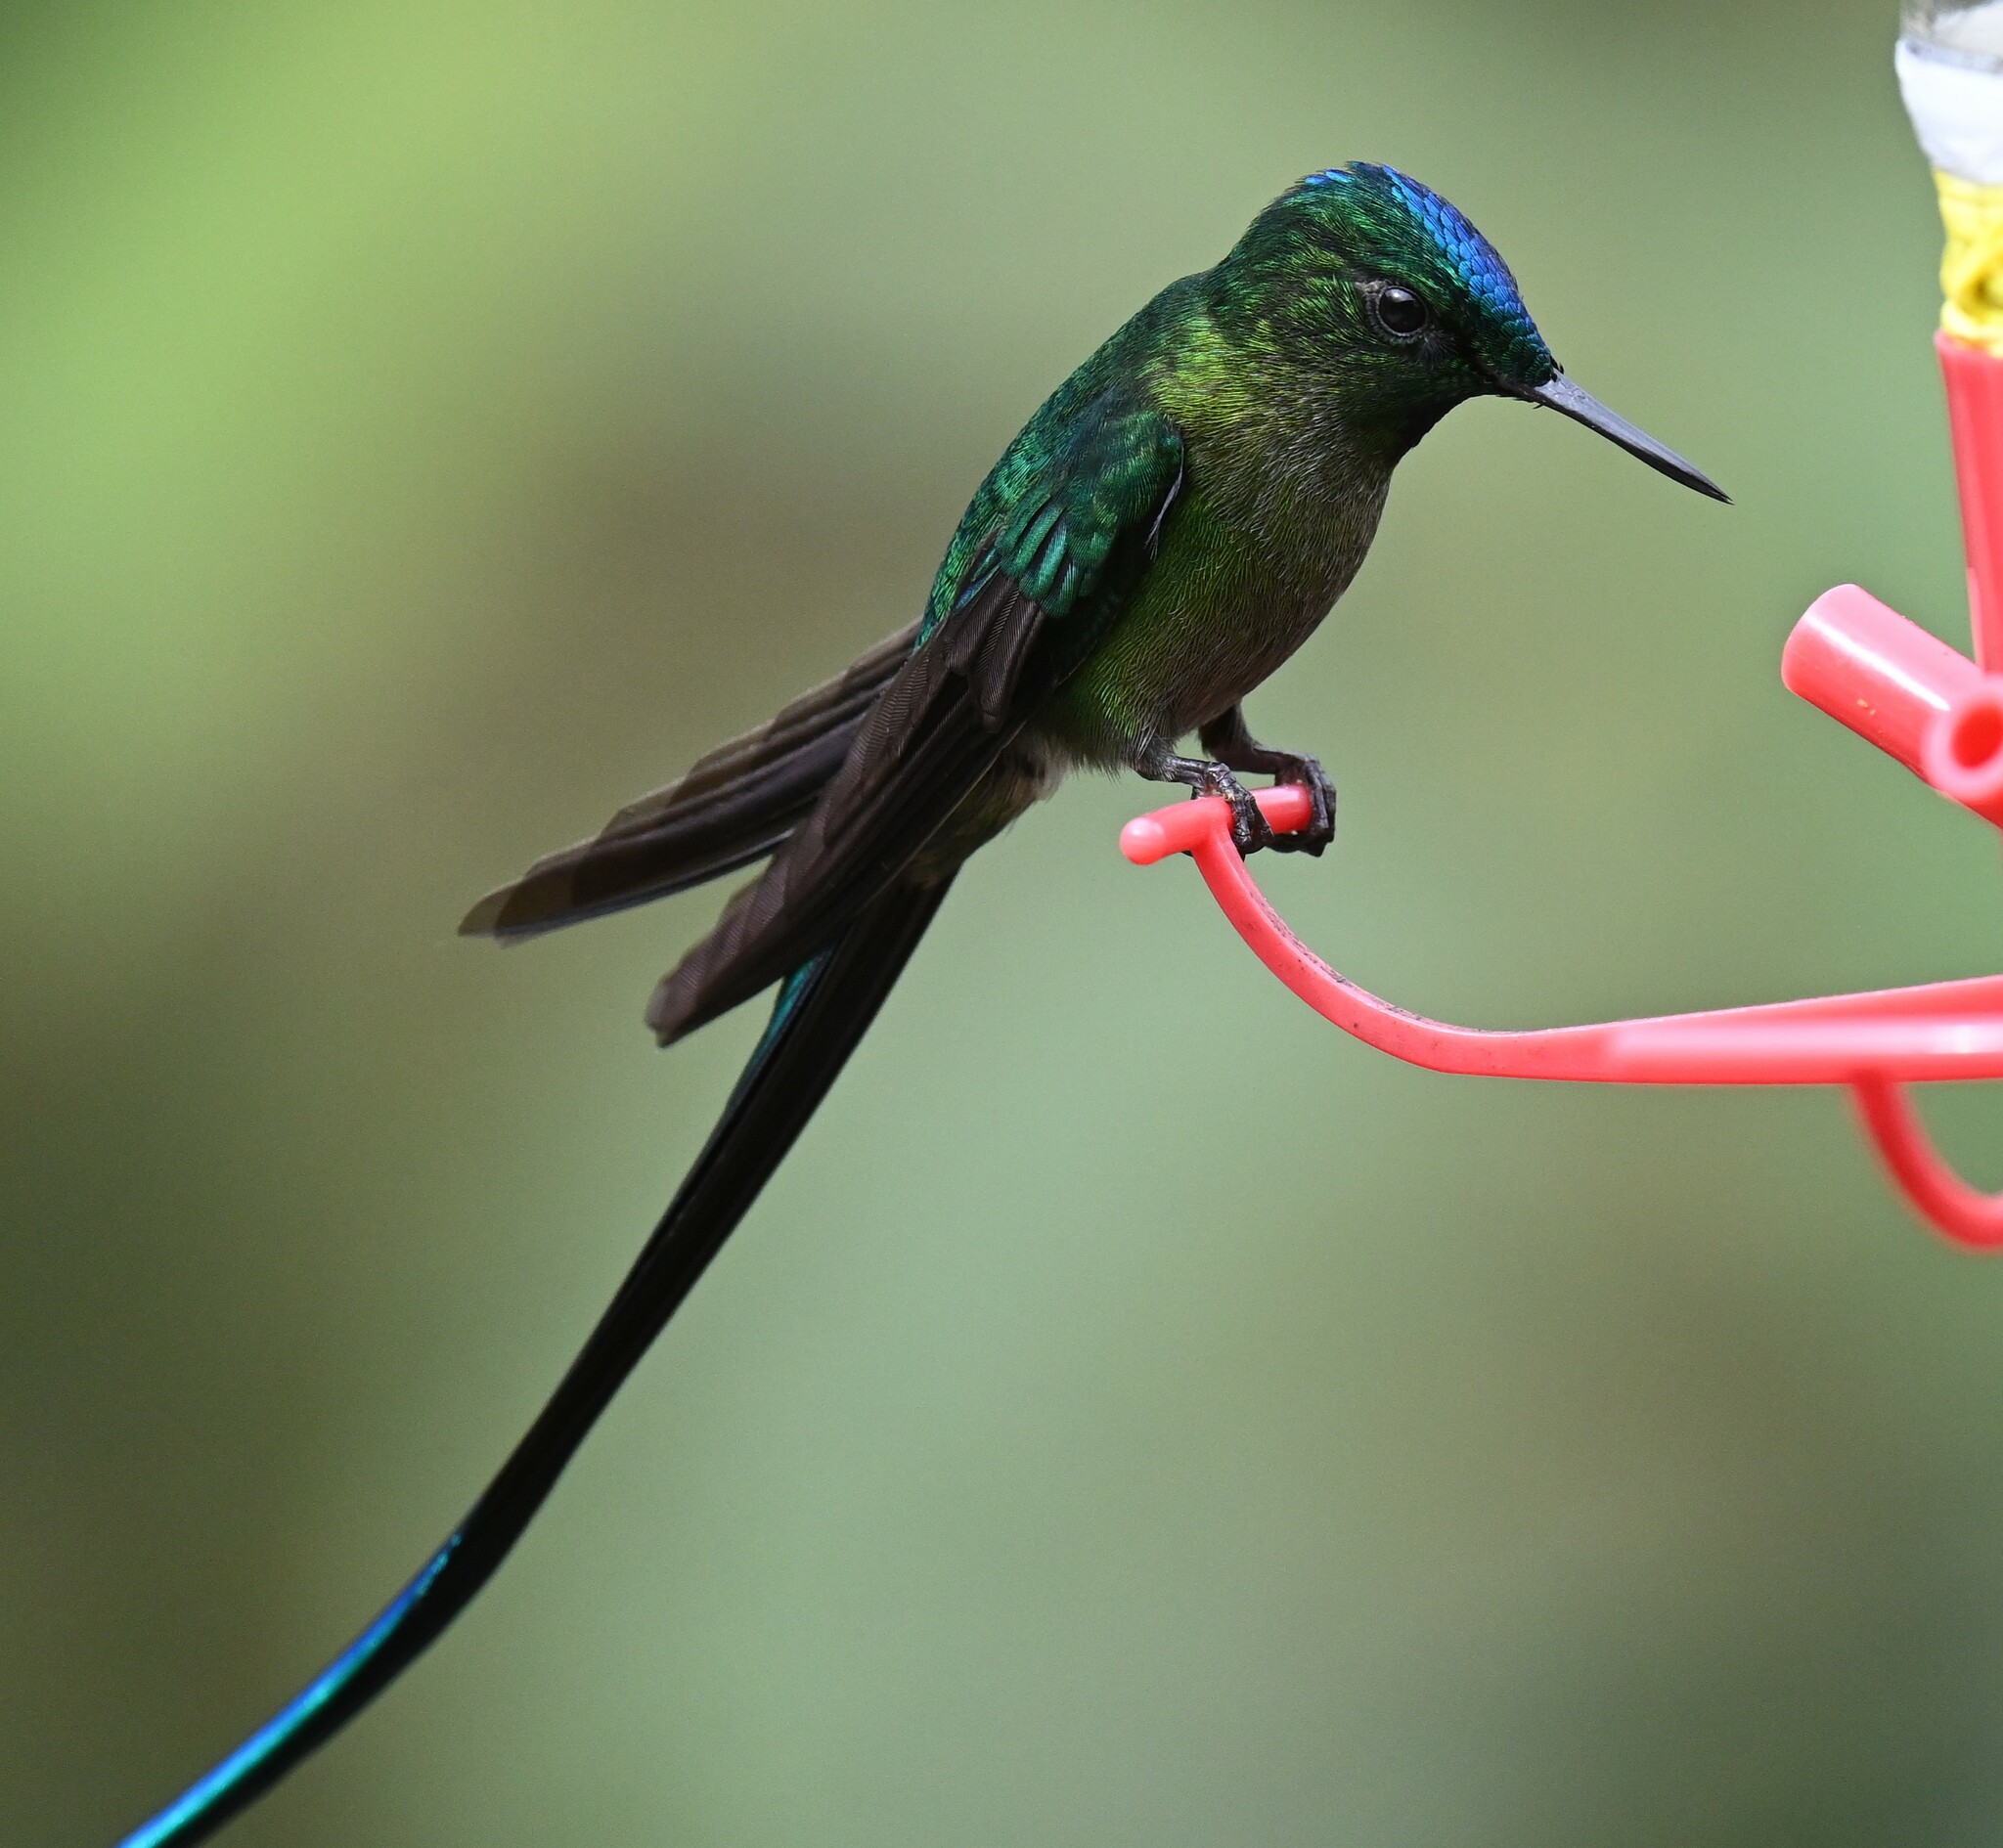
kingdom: Animalia
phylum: Chordata
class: Aves
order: Apodiformes
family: Trochilidae
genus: Aglaiocercus
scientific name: Aglaiocercus kingii
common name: Long-tailed sylph
